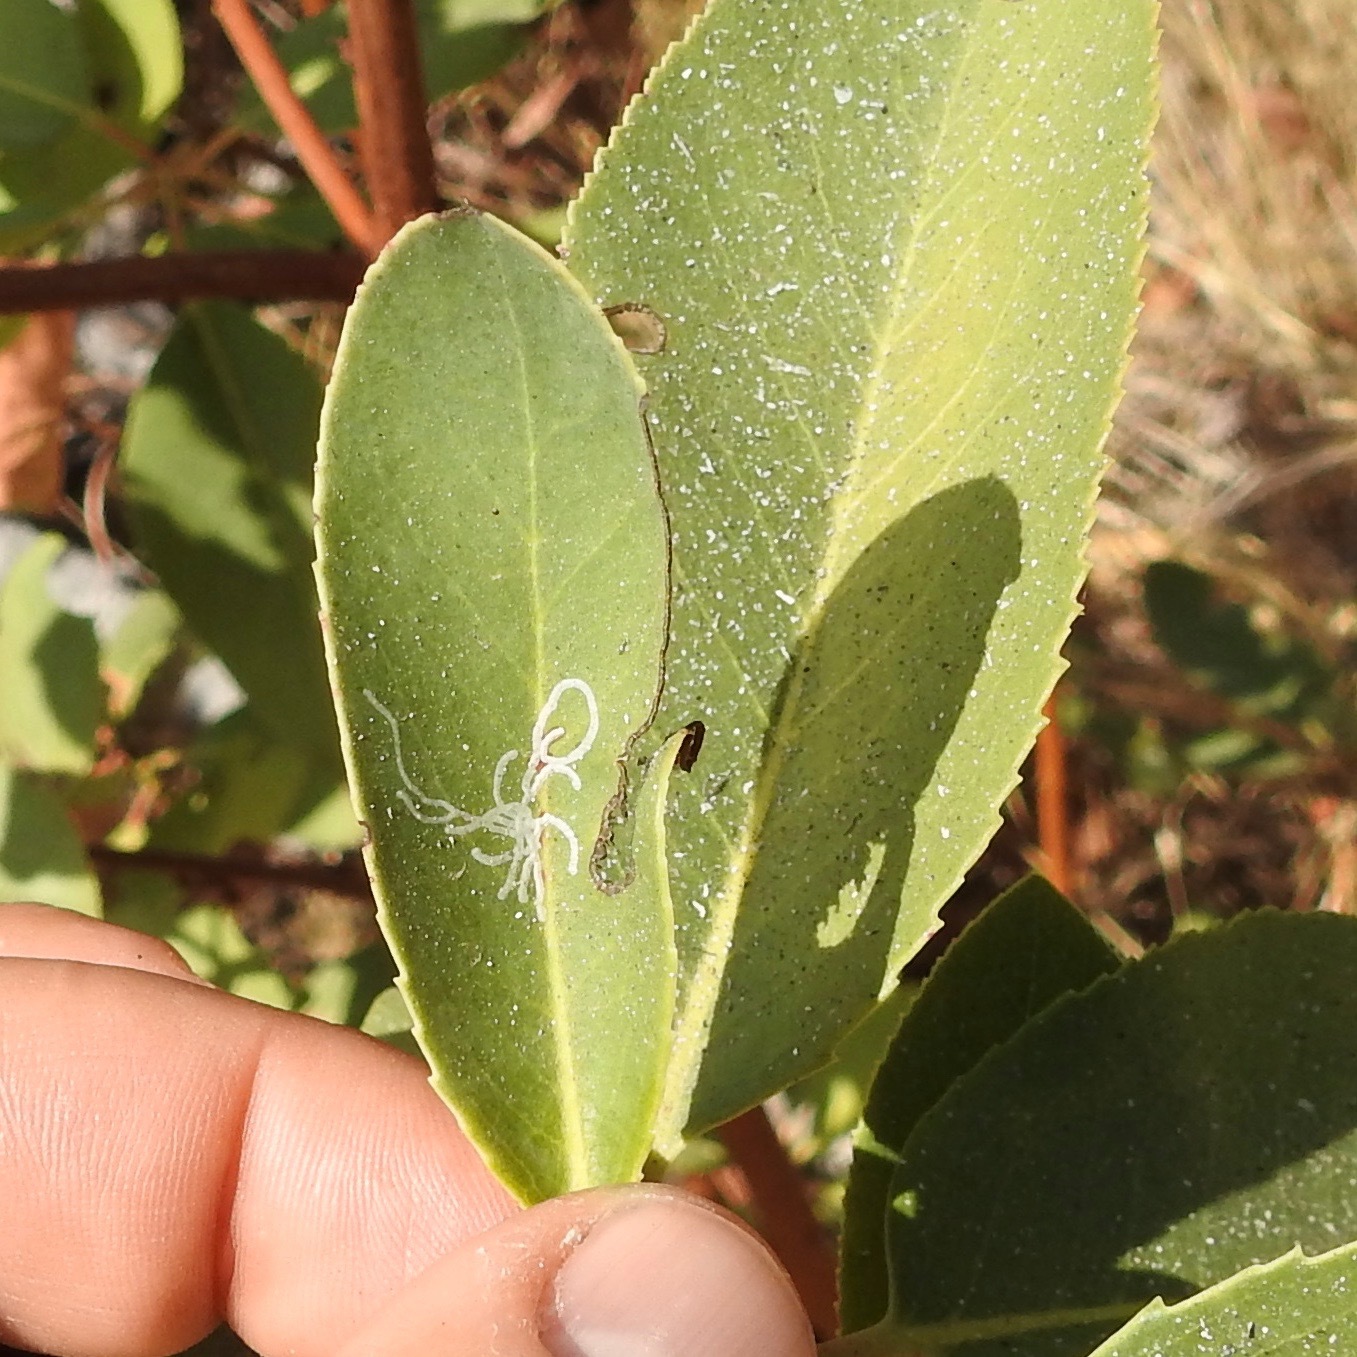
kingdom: Animalia
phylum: Arthropoda
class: Insecta
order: Lepidoptera
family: Gracillariidae
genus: Marmara
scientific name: Marmara arbutiella
